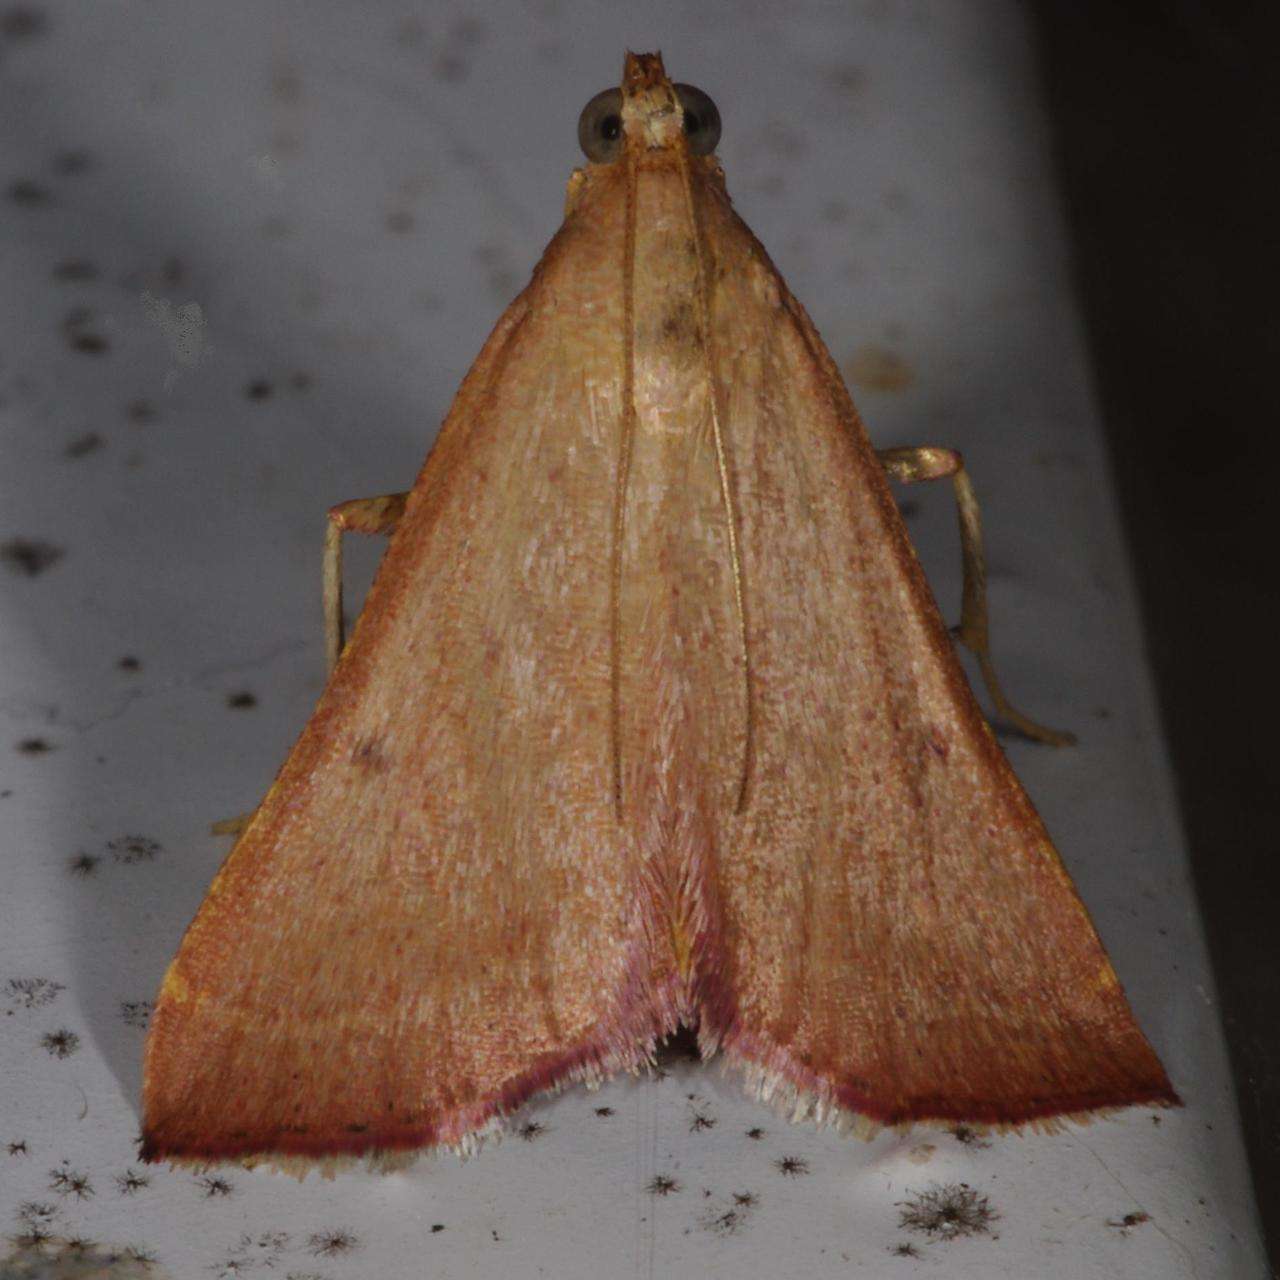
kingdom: Animalia
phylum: Arthropoda
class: Insecta
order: Lepidoptera
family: Pyralidae
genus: Endotricha
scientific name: Endotricha pyrosalis
